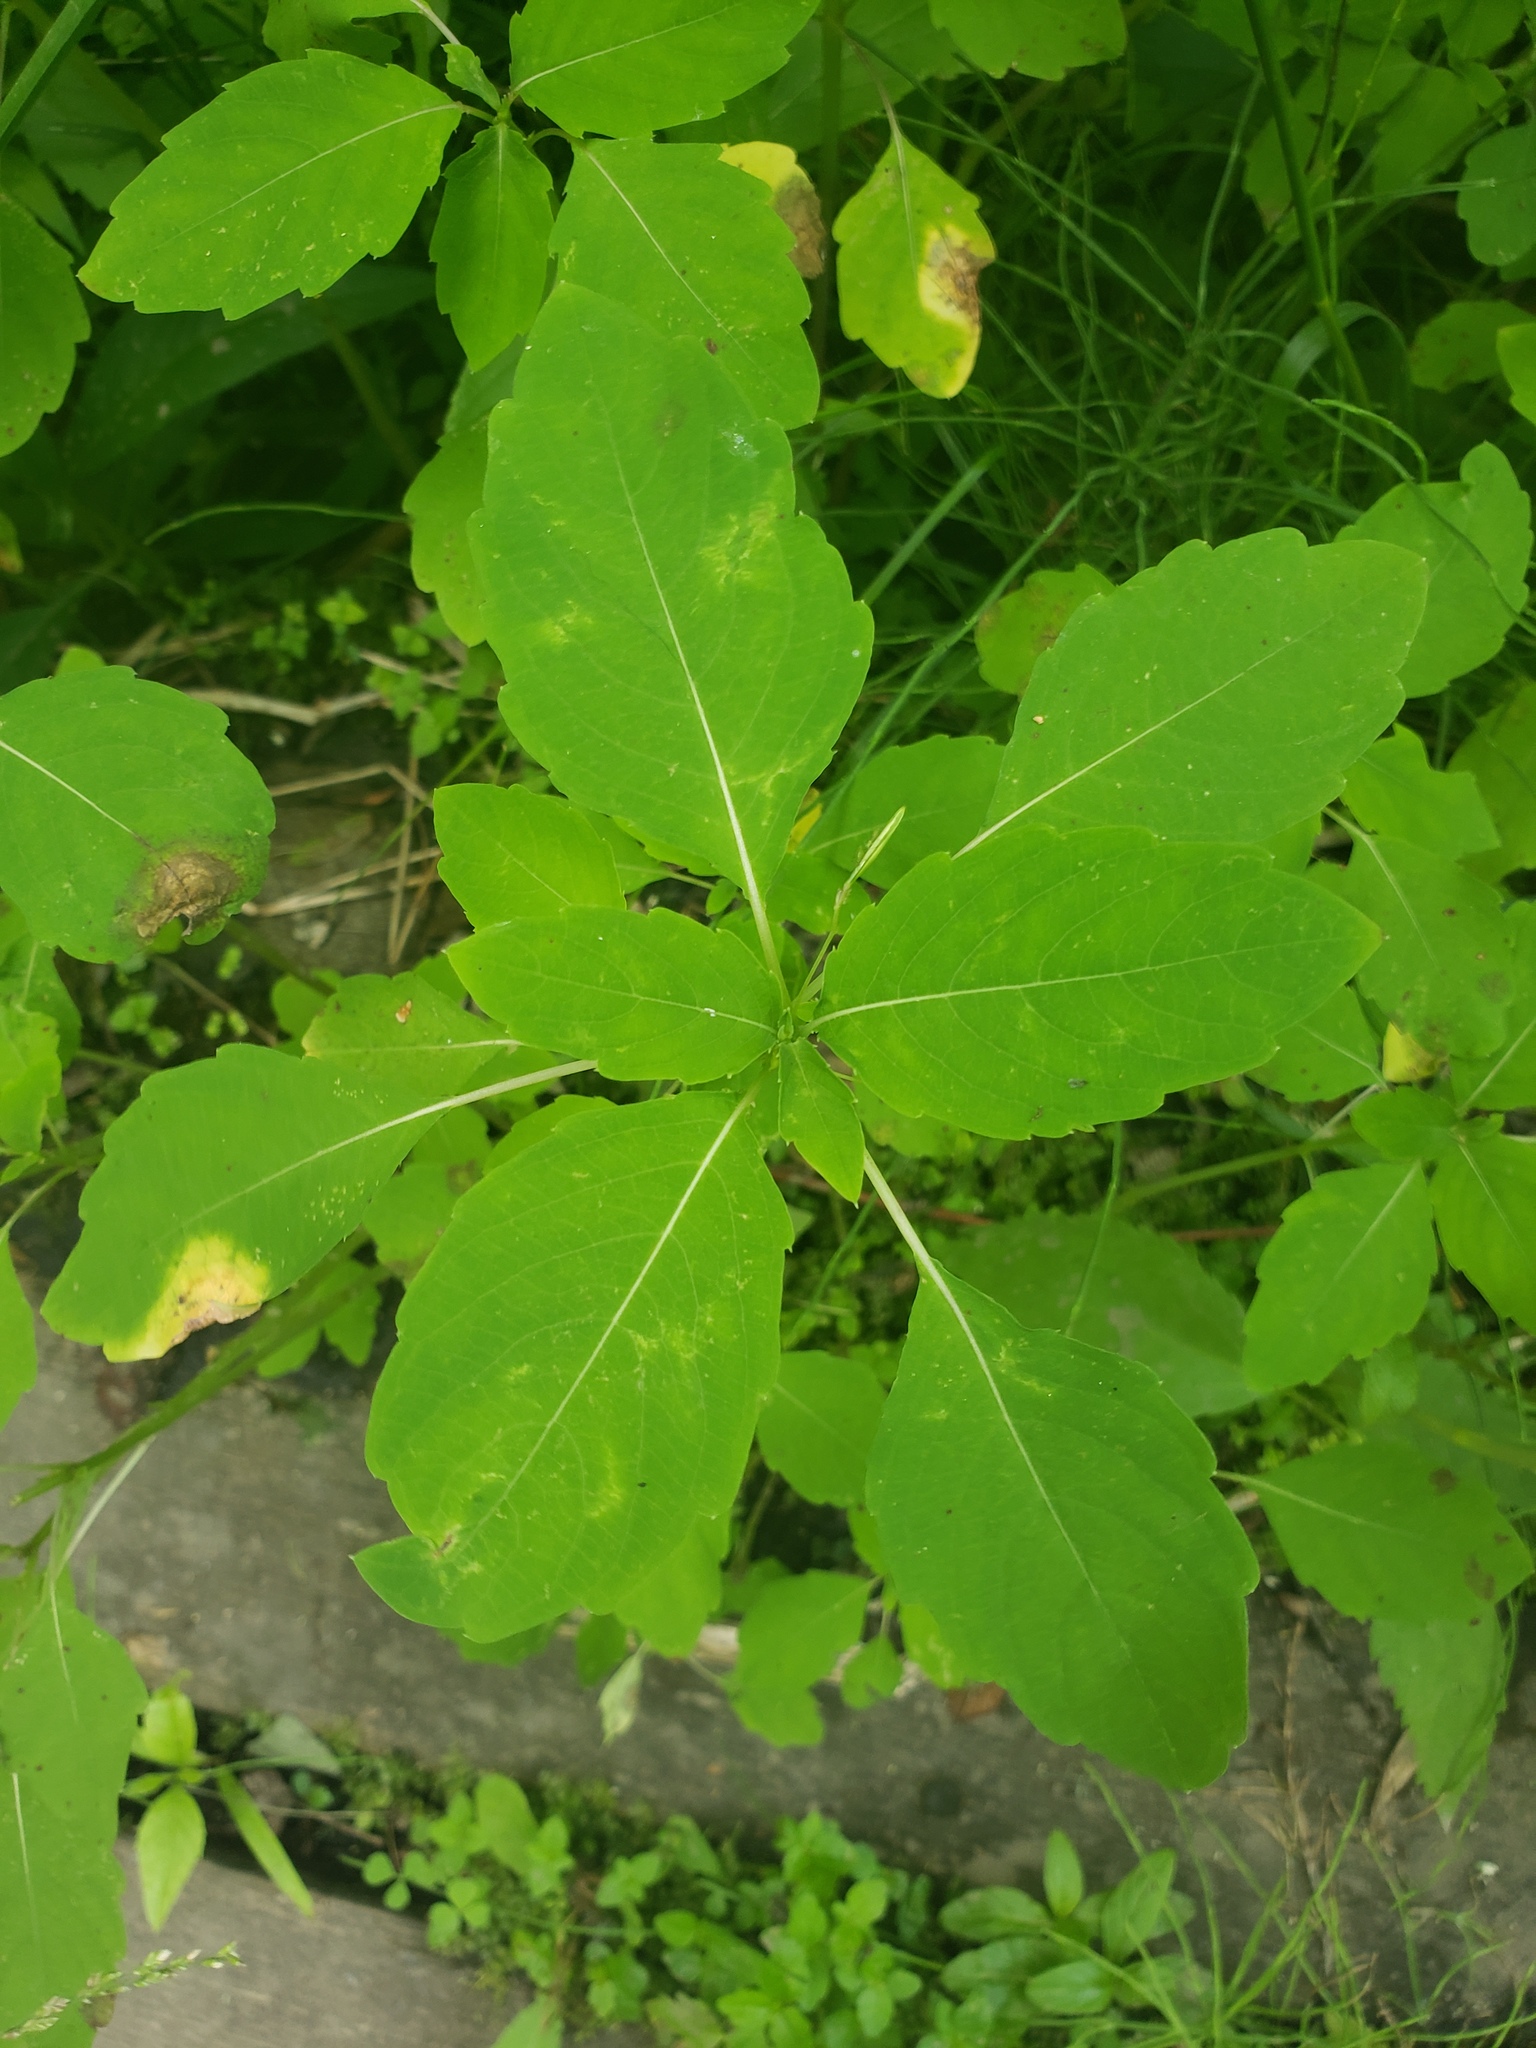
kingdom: Plantae
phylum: Tracheophyta
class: Magnoliopsida
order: Ericales
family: Balsaminaceae
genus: Impatiens
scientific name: Impatiens capensis
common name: Orange balsam
